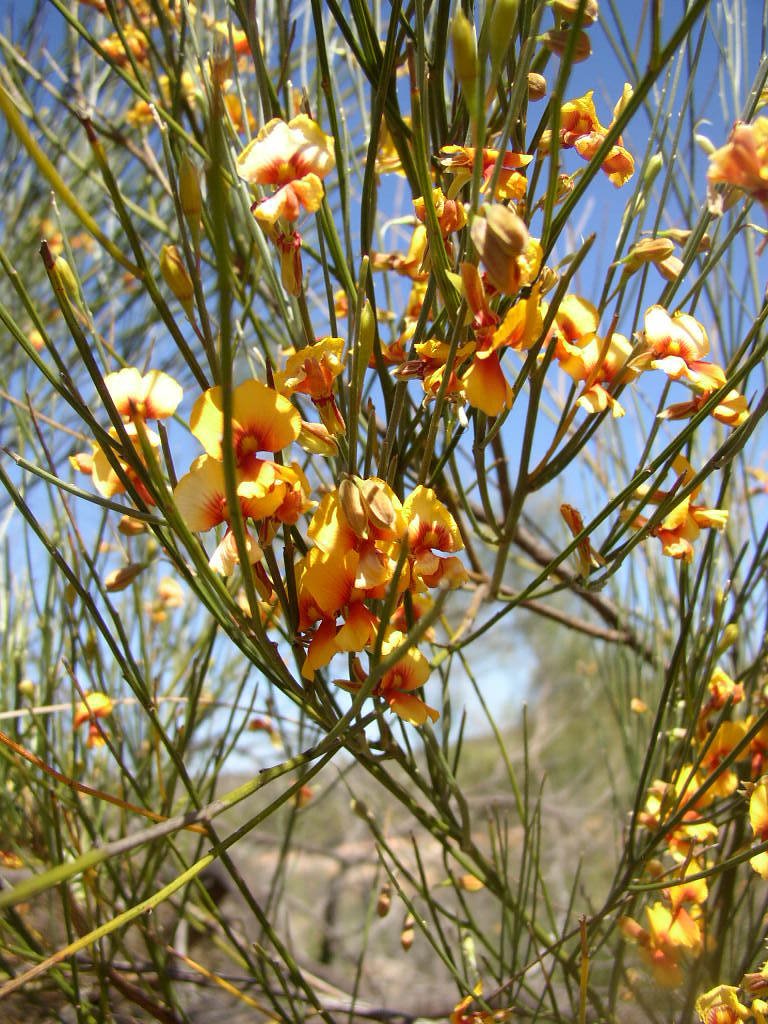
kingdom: Plantae
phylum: Tracheophyta
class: Magnoliopsida
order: Fabales
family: Fabaceae
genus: Jacksonia
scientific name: Jacksonia cupulifera
